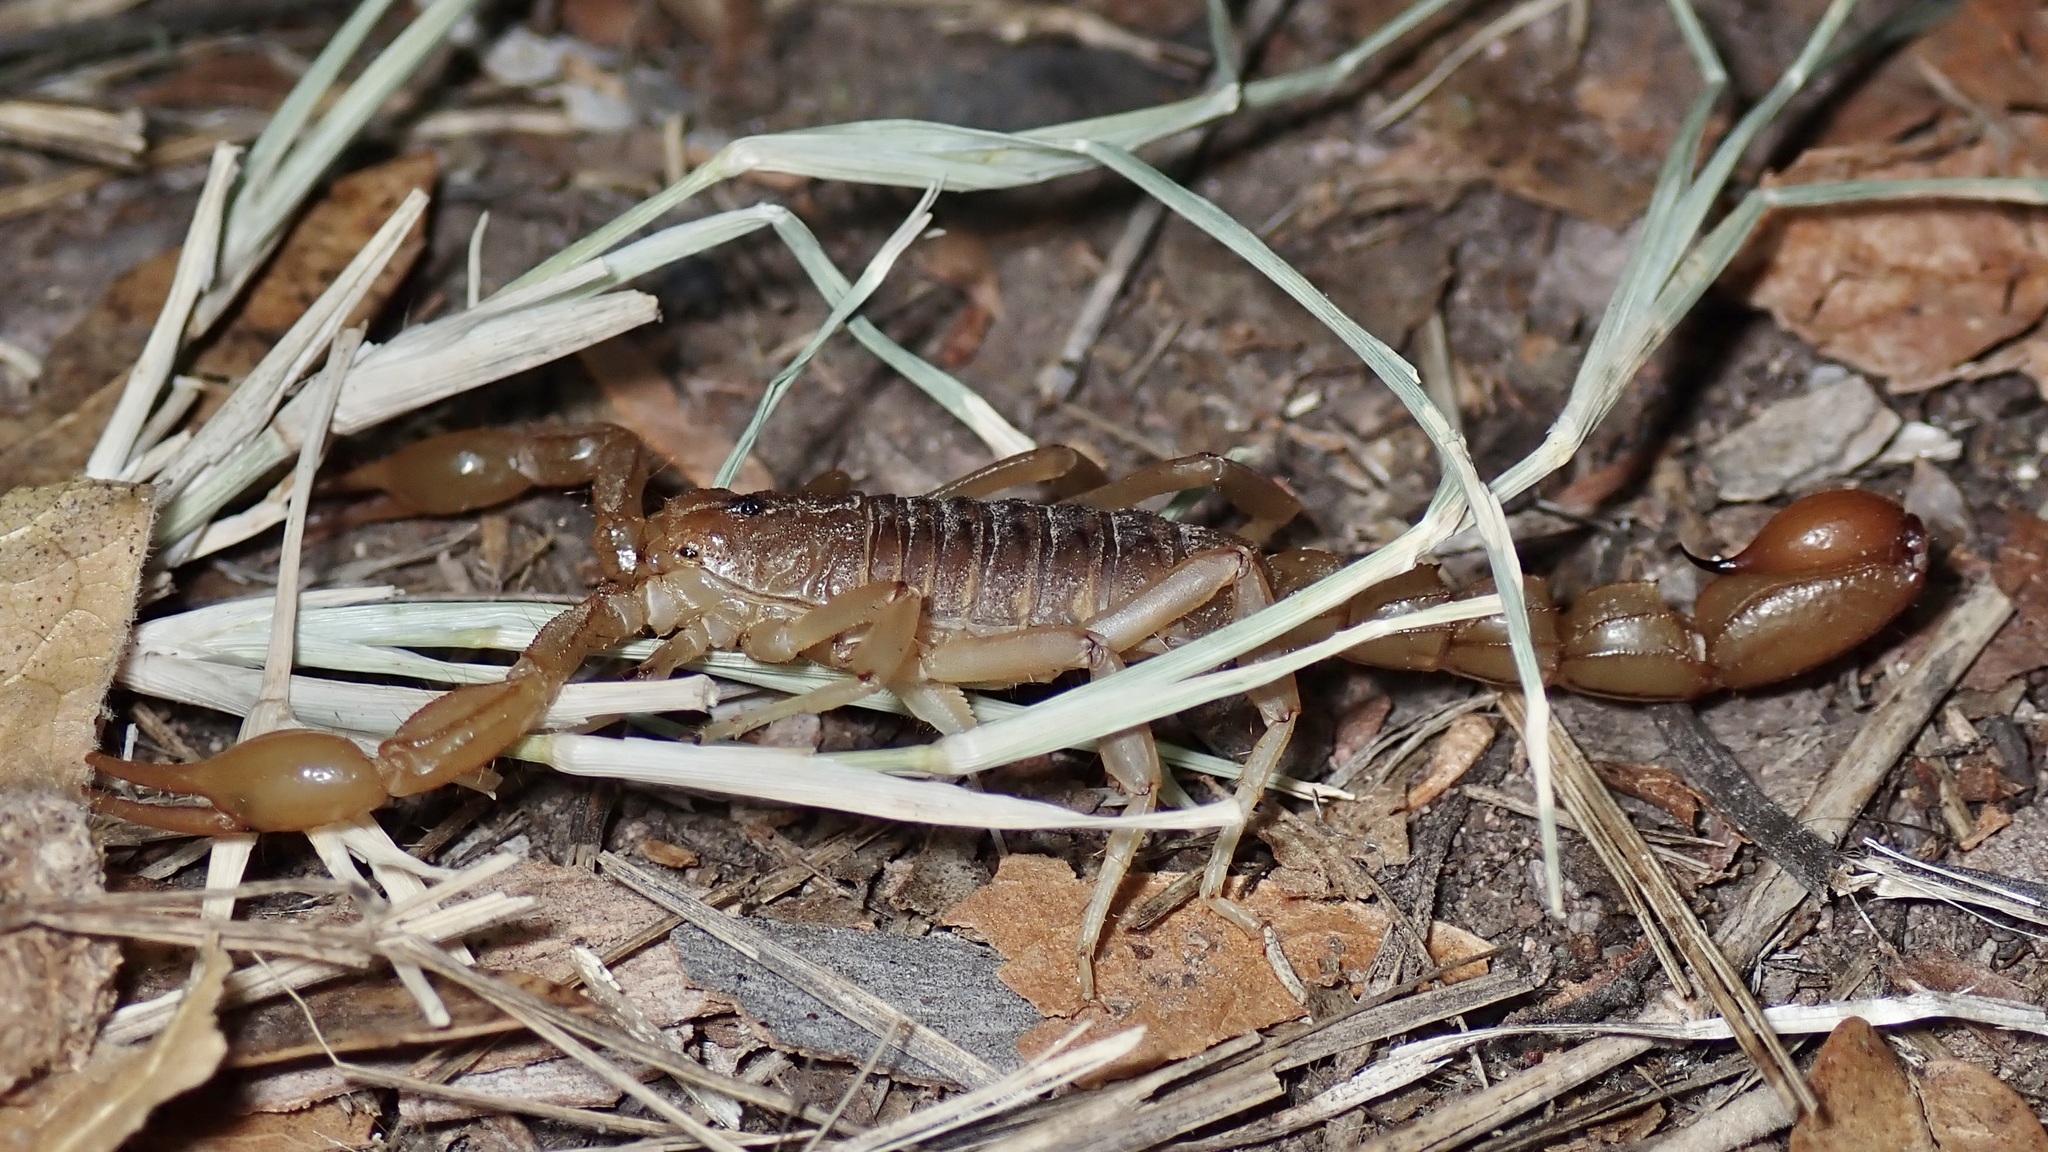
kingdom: Animalia
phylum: Arthropoda
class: Arachnida
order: Scorpiones
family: Vaejovidae
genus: Paravaejovis
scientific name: Paravaejovis spinigerus
